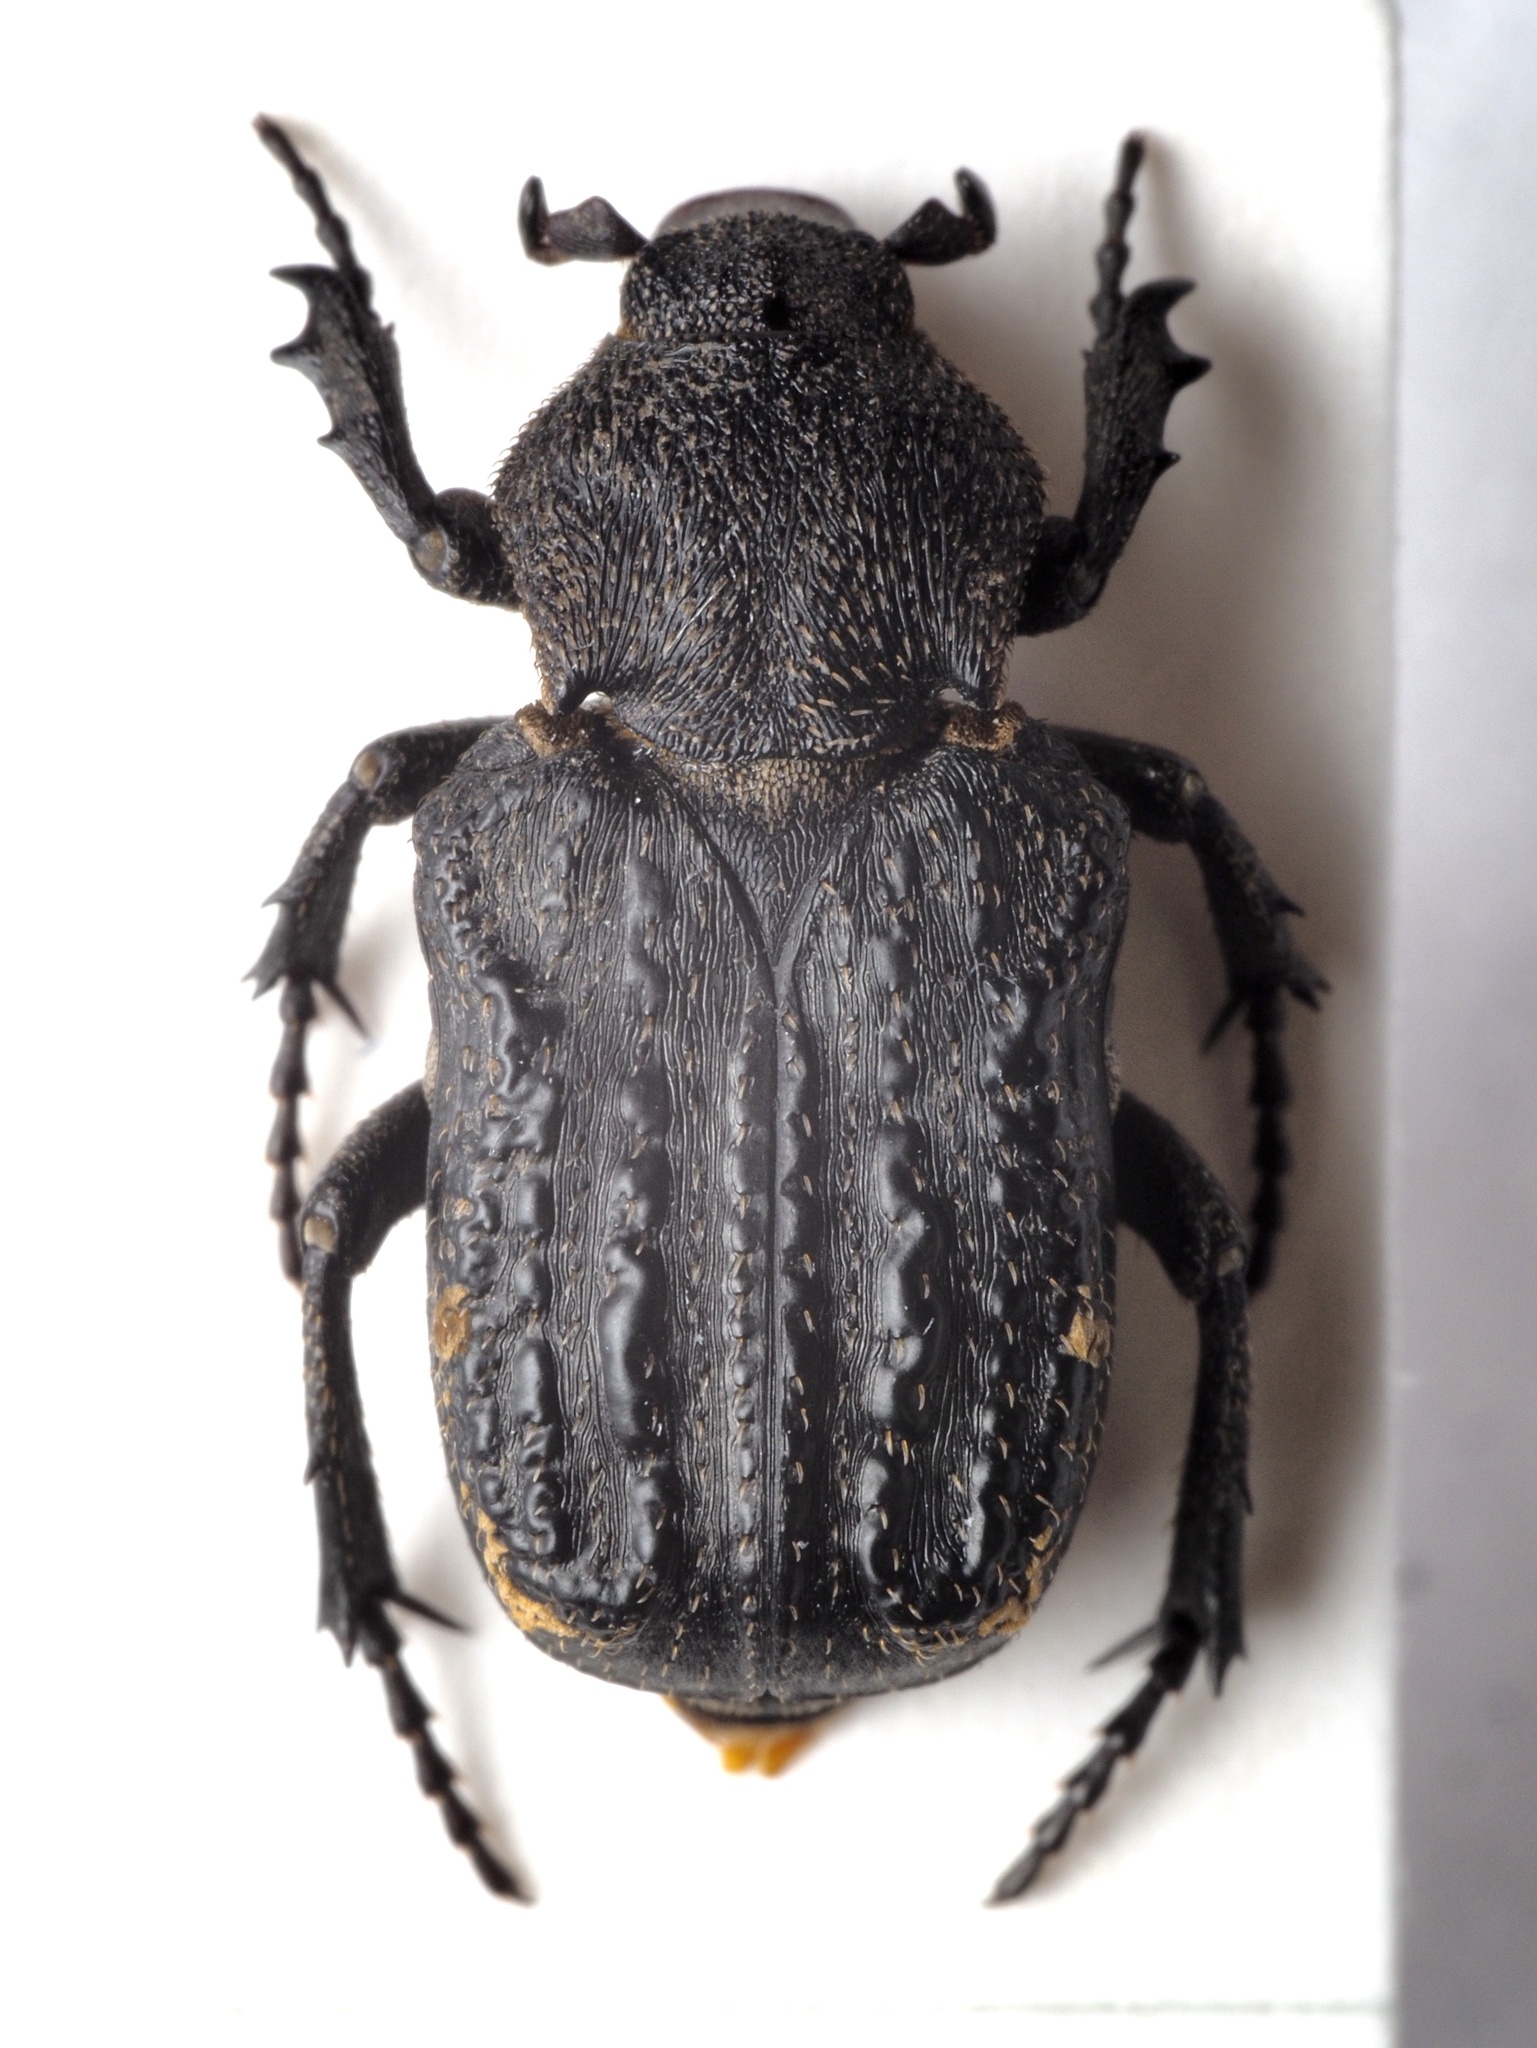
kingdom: Animalia
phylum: Arthropoda
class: Insecta
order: Coleoptera
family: Scarabaeidae
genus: Scaptobius
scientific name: Scaptobius pentarthrius
